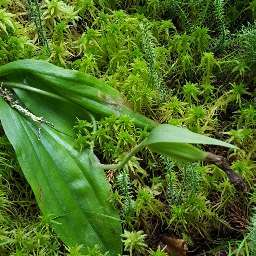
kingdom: Plantae
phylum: Tracheophyta
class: Liliopsida
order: Asparagales
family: Orchidaceae
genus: Cypripedium
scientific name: Cypripedium acaule
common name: Pink lady's-slipper
